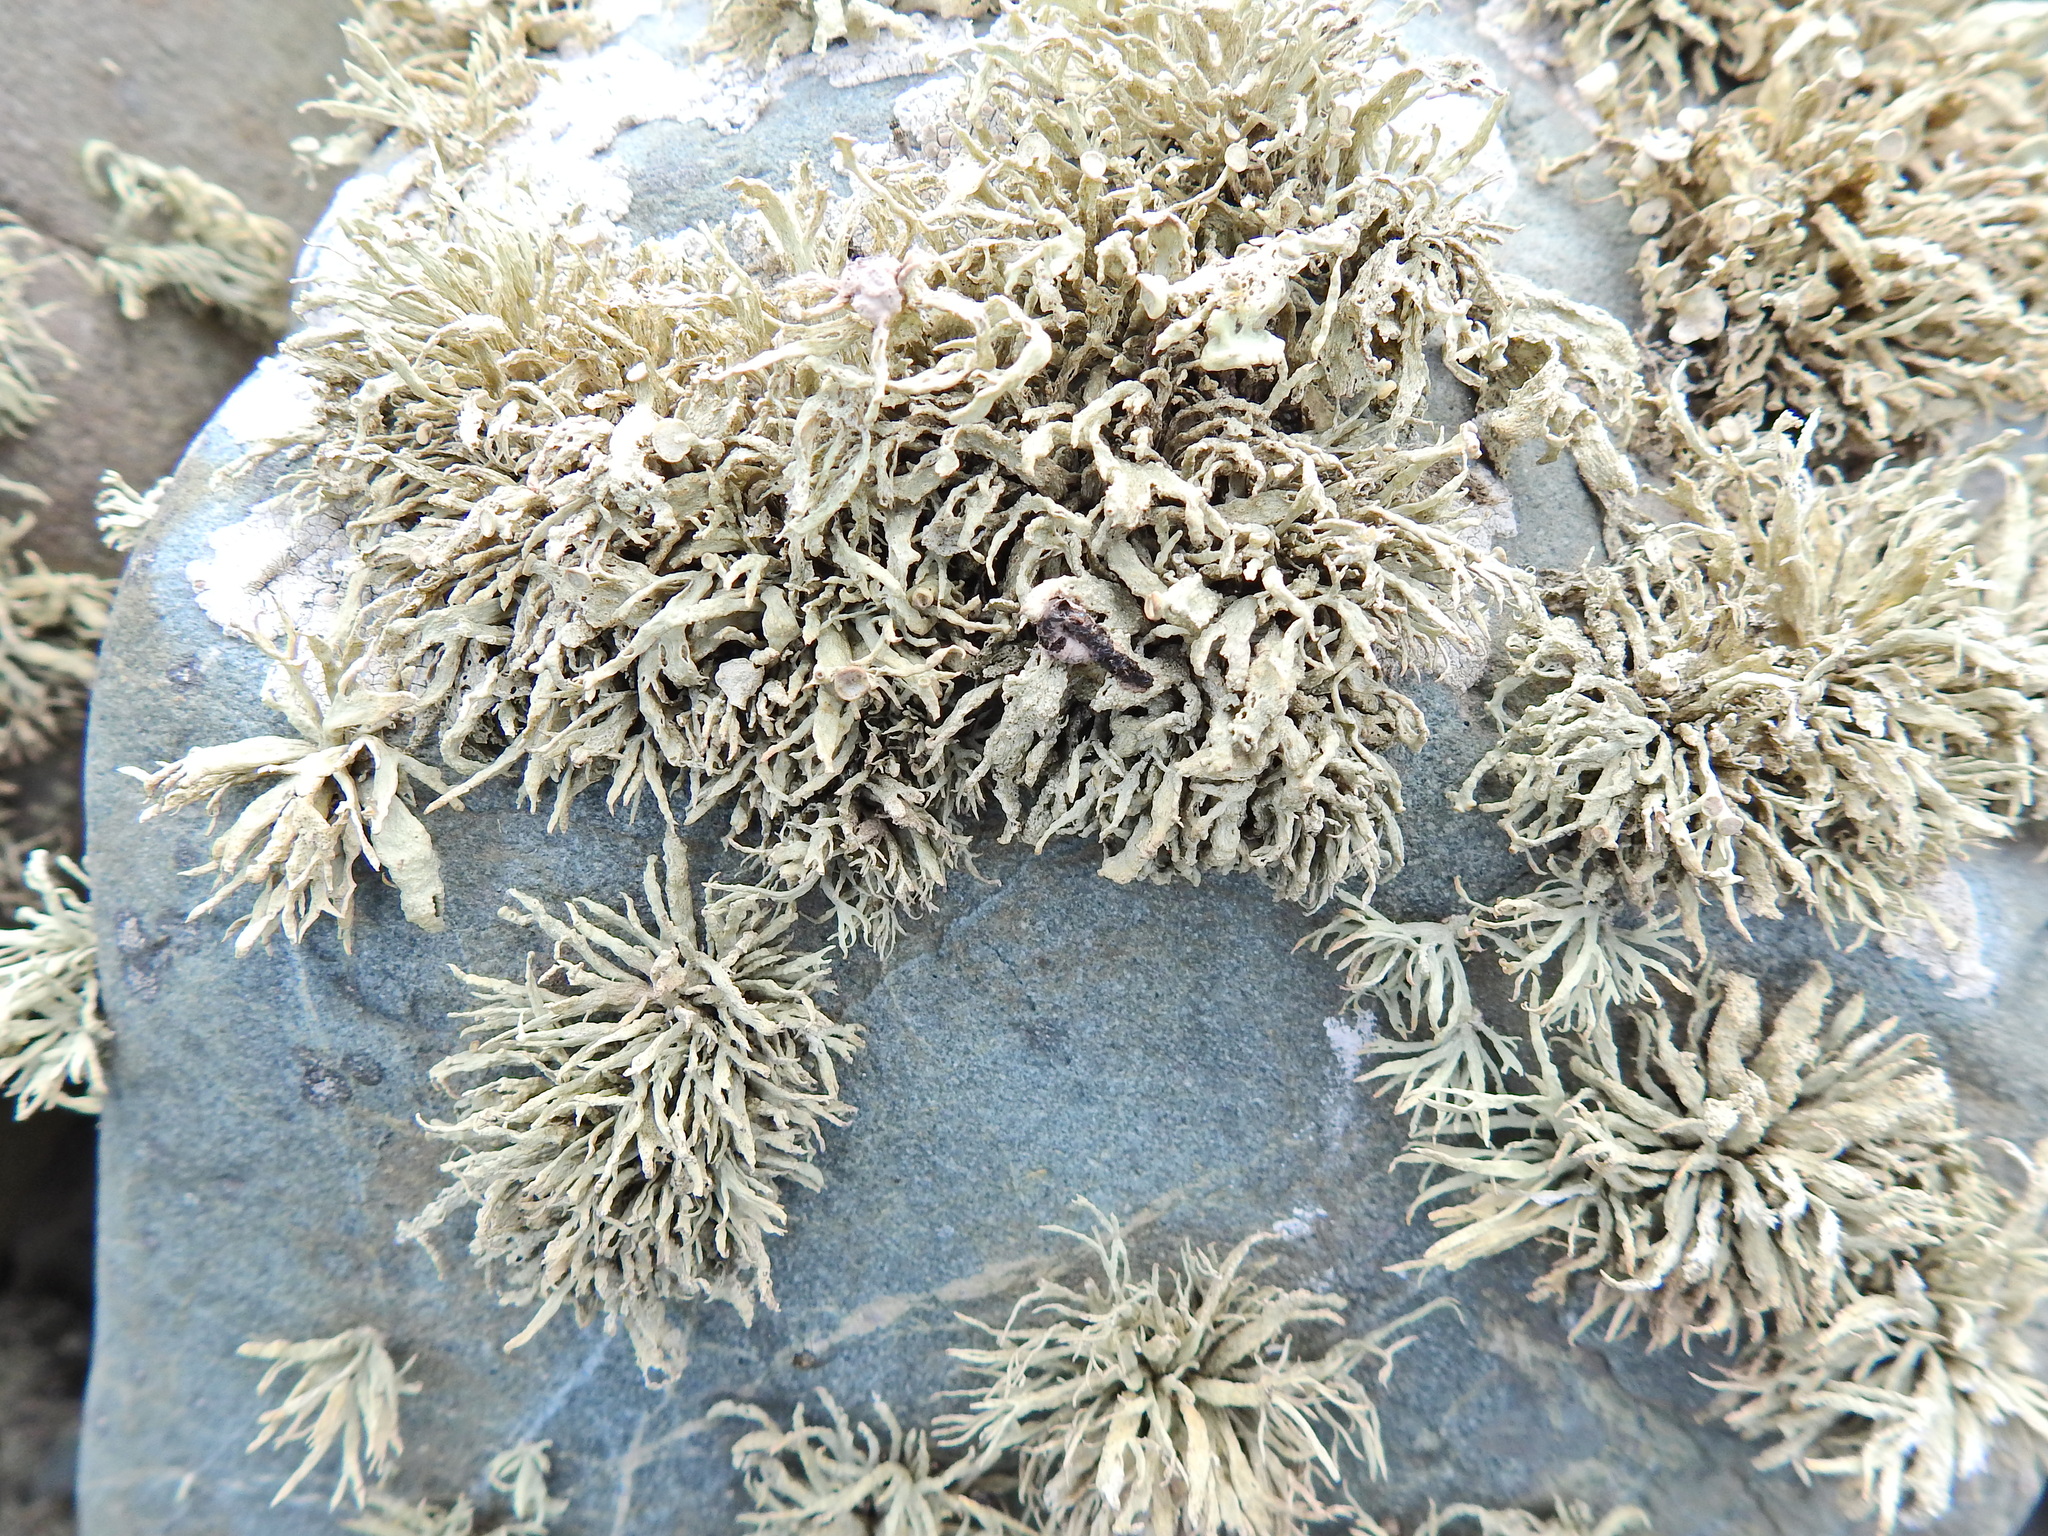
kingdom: Fungi
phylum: Ascomycota
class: Lecanoromycetes
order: Lecanorales
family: Ramalinaceae
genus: Ramalina
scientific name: Ramalina siliquosa
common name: Sea ivory
